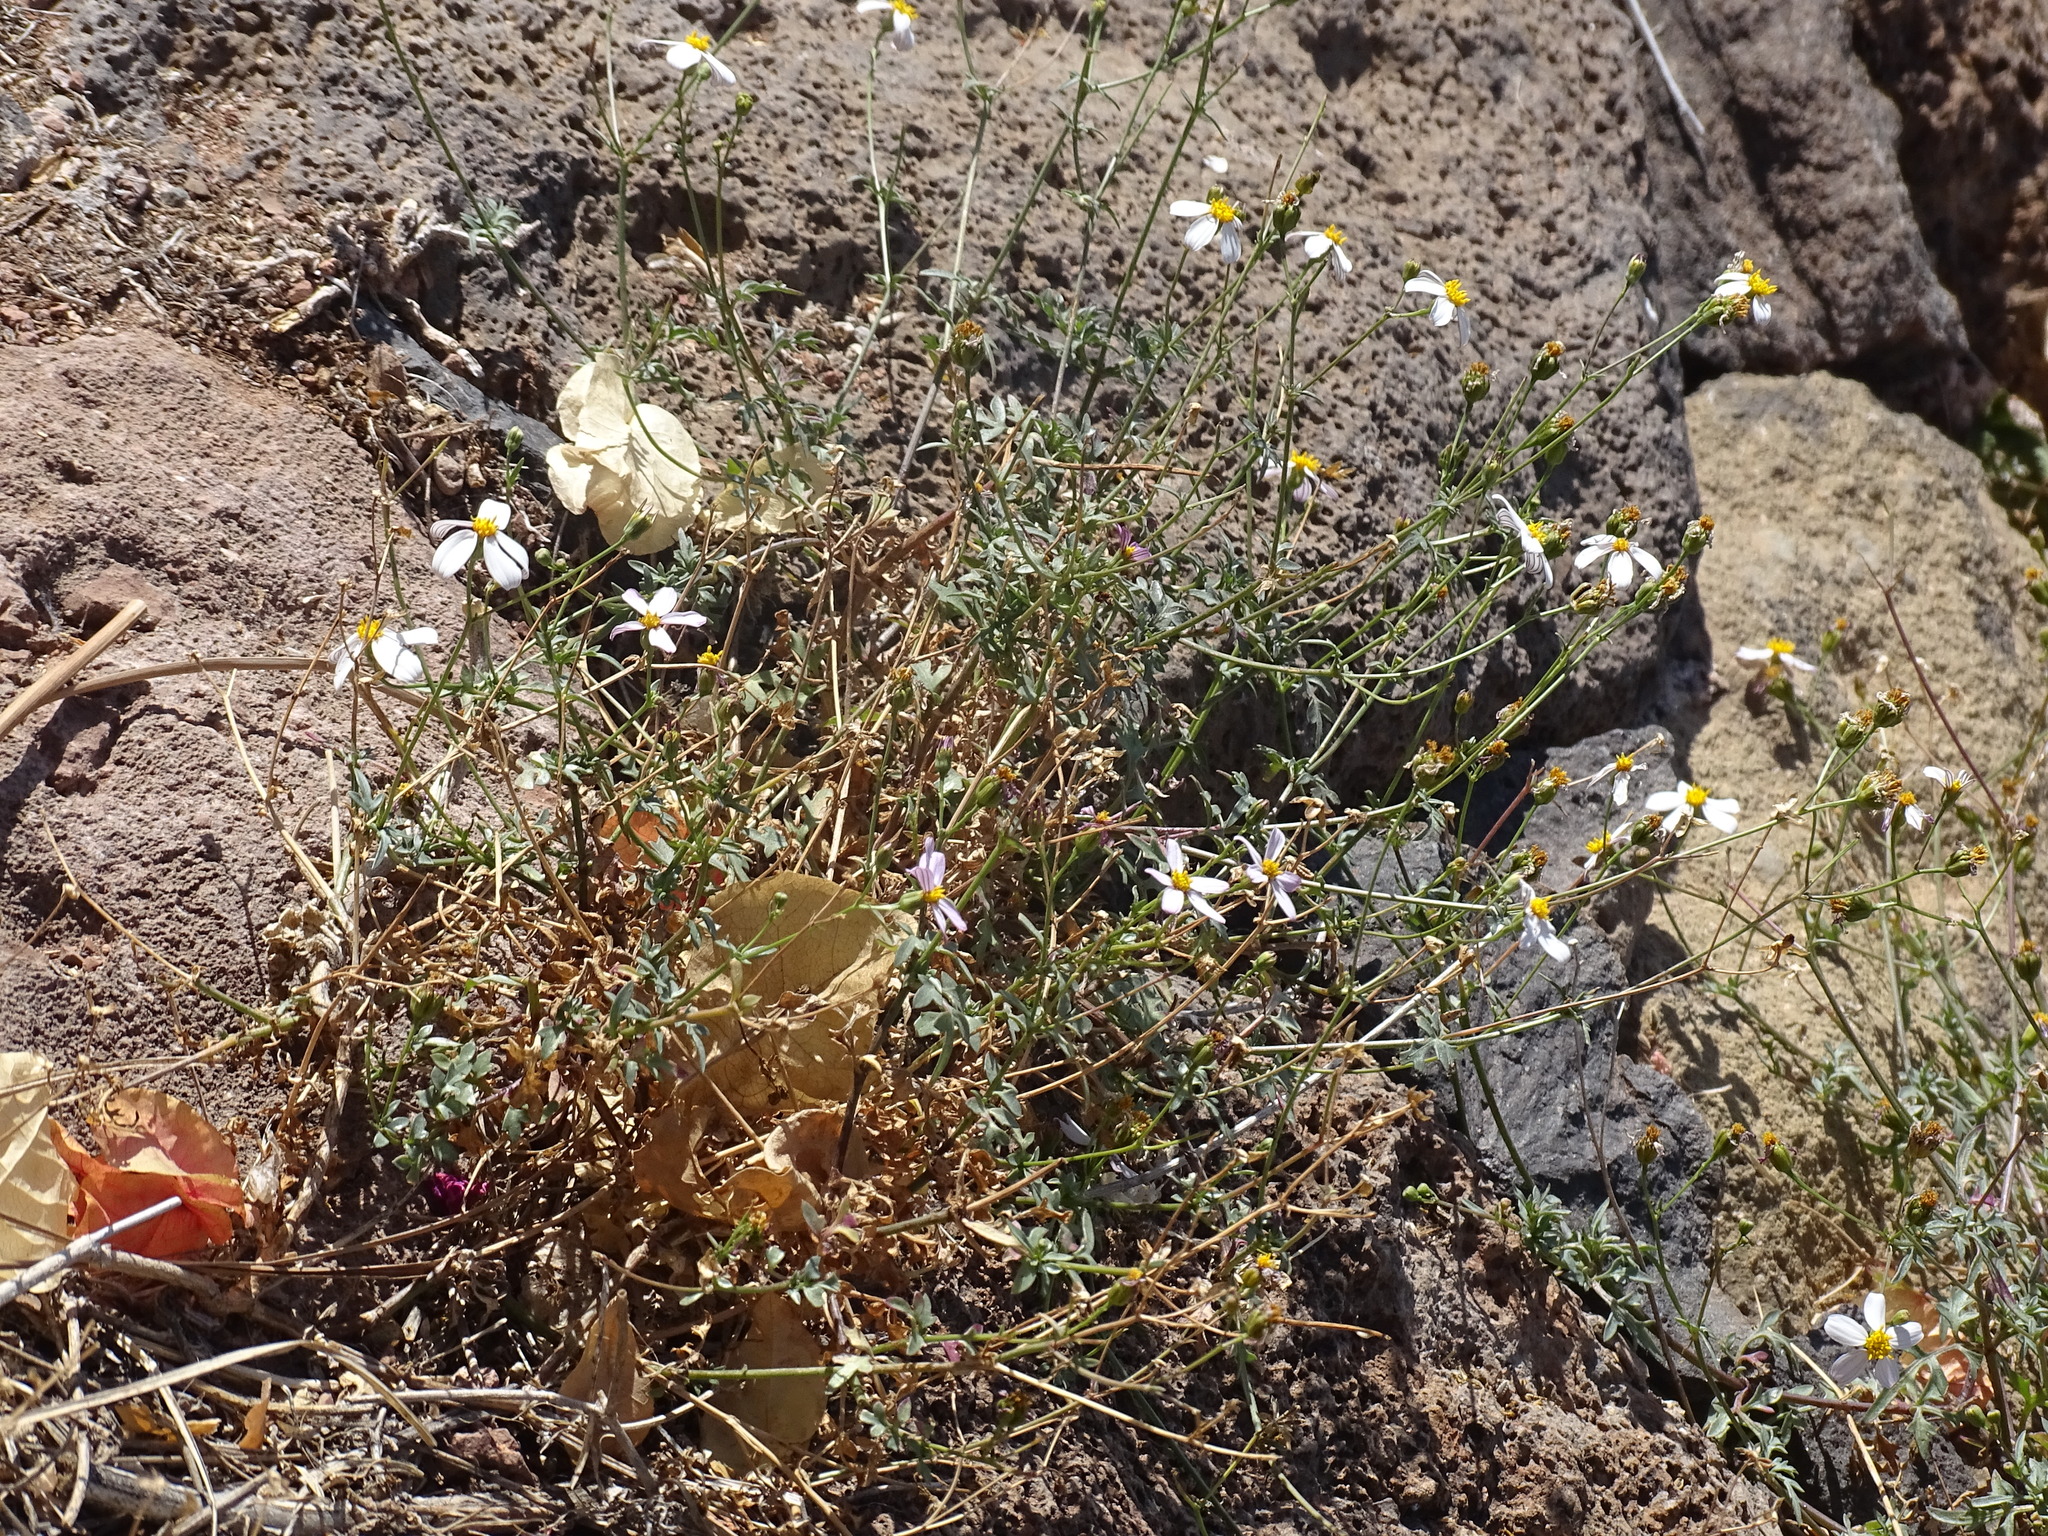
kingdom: Plantae
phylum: Tracheophyta
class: Magnoliopsida
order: Asterales
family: Asteraceae
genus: Coreocarpus
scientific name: Coreocarpus sonoranus
